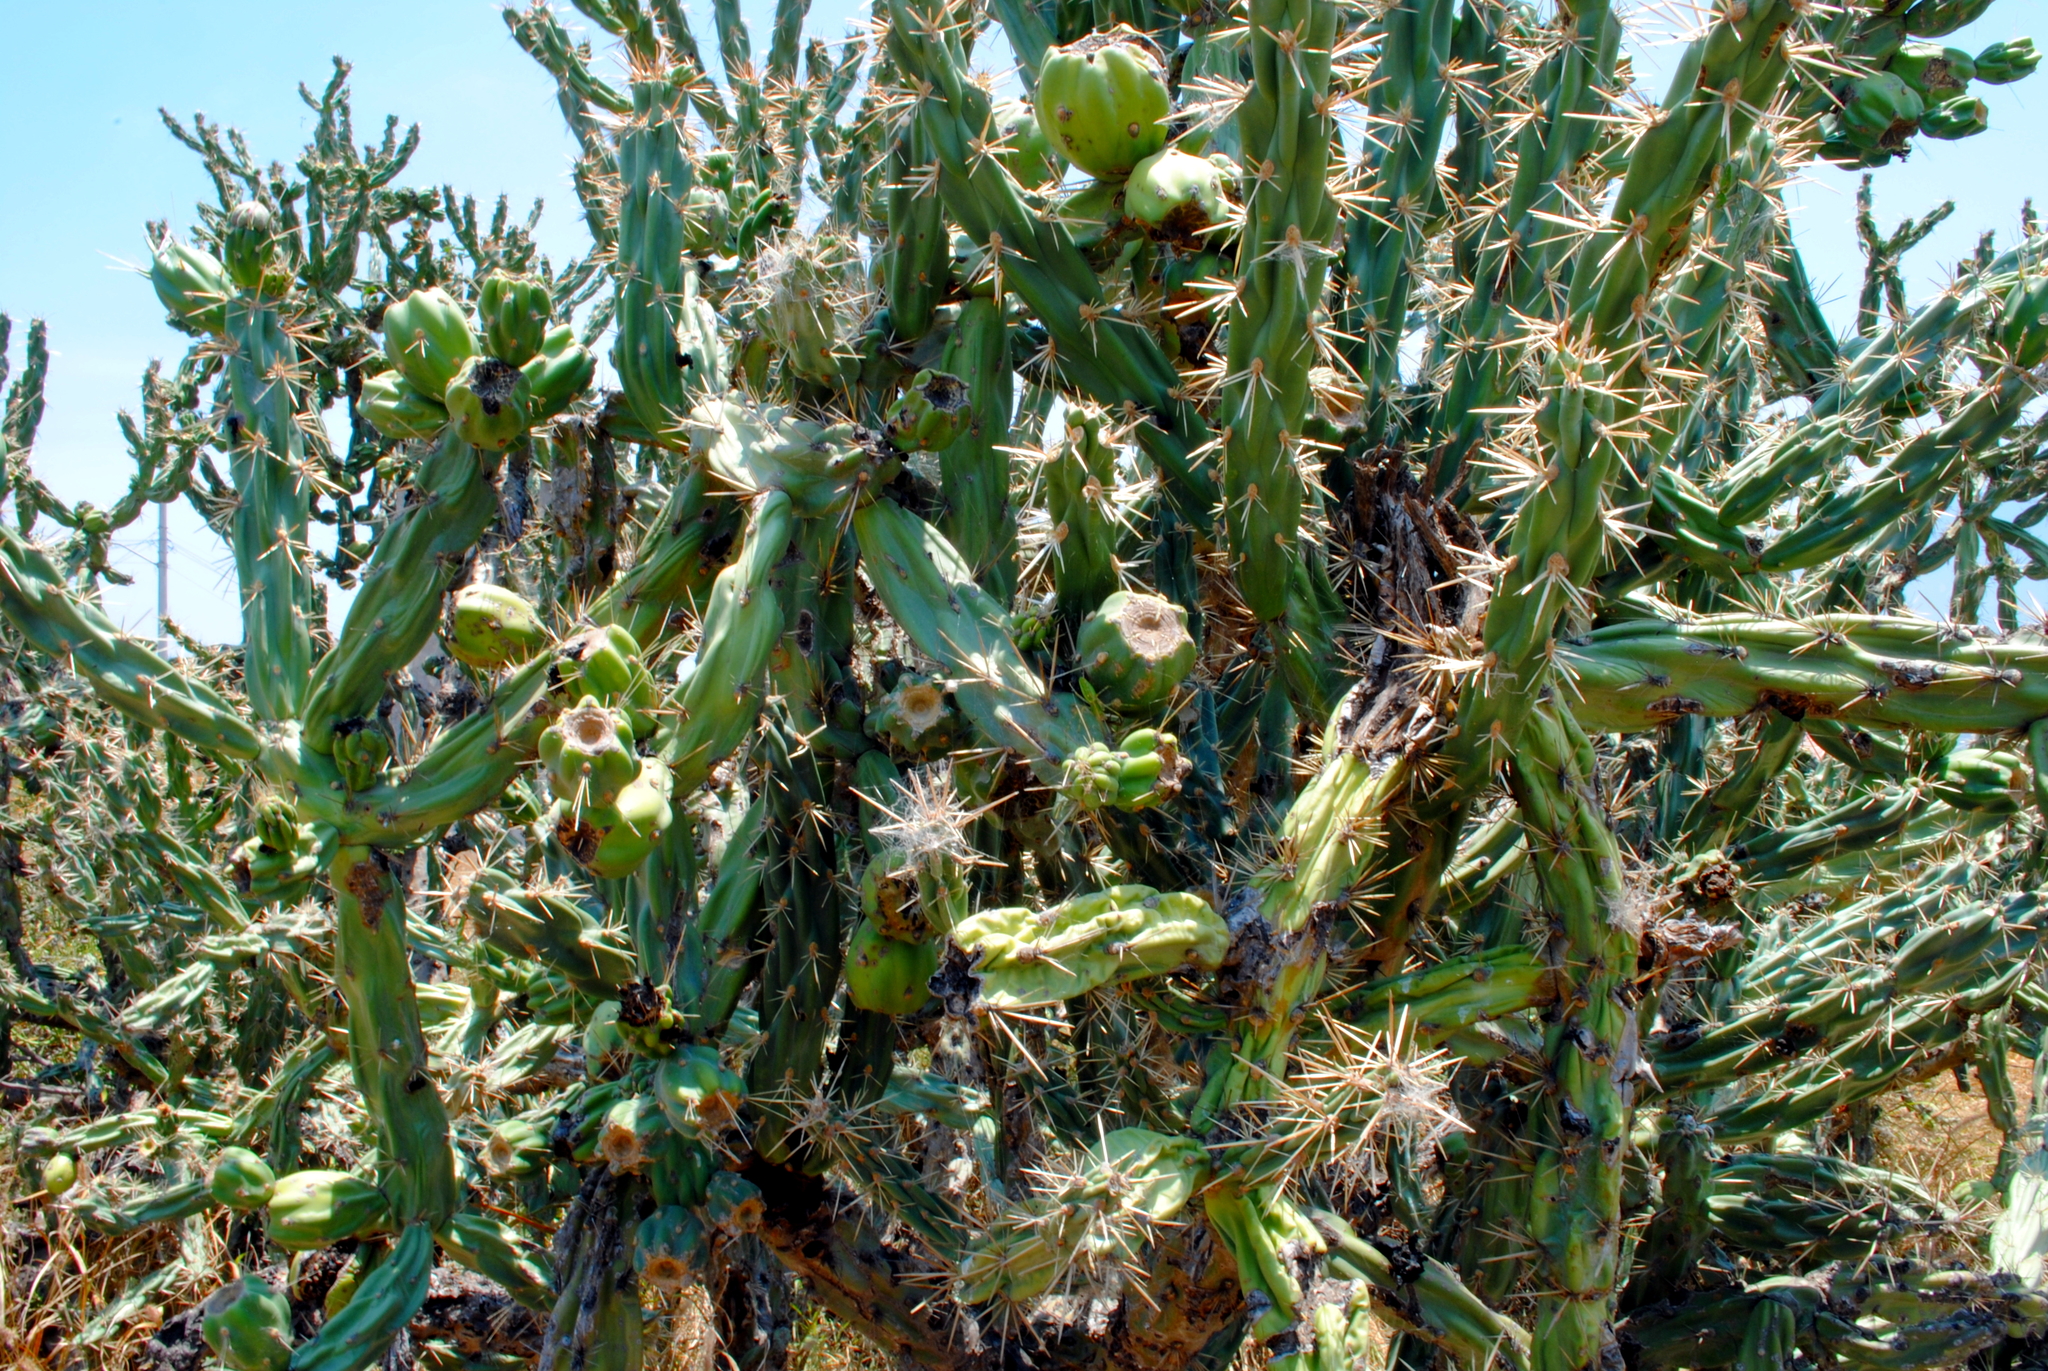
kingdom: Plantae
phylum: Tracheophyta
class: Magnoliopsida
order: Caryophyllales
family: Cactaceae
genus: Cylindropuntia
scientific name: Cylindropuntia imbricata
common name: Candelabrum cactus
